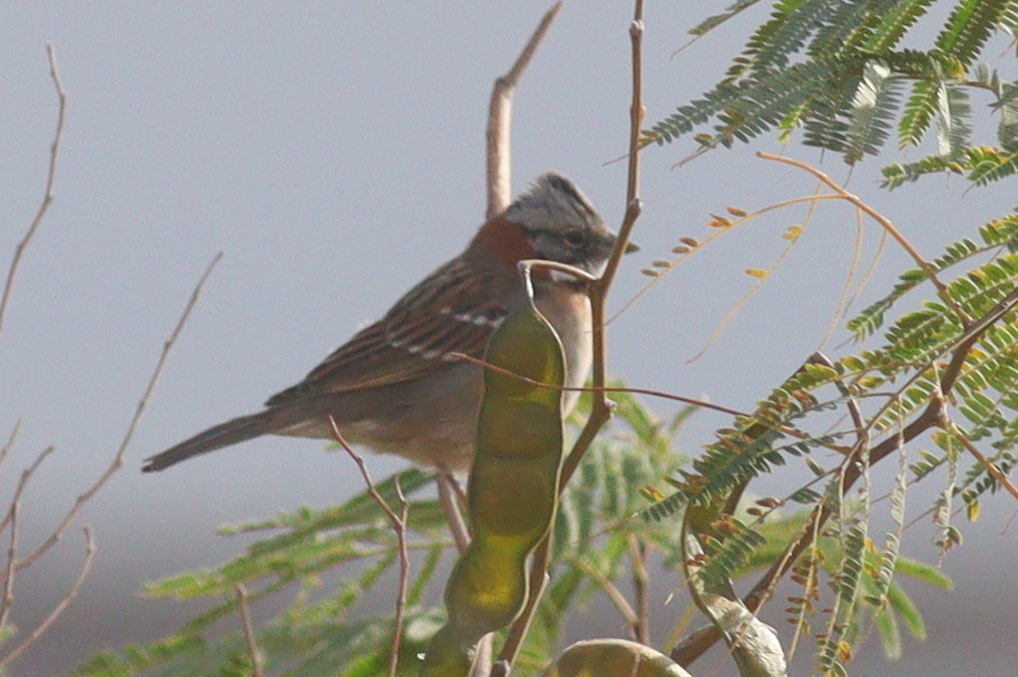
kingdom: Animalia
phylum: Chordata
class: Aves
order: Passeriformes
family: Passerellidae
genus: Zonotrichia
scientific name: Zonotrichia capensis
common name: Rufous-collared sparrow
